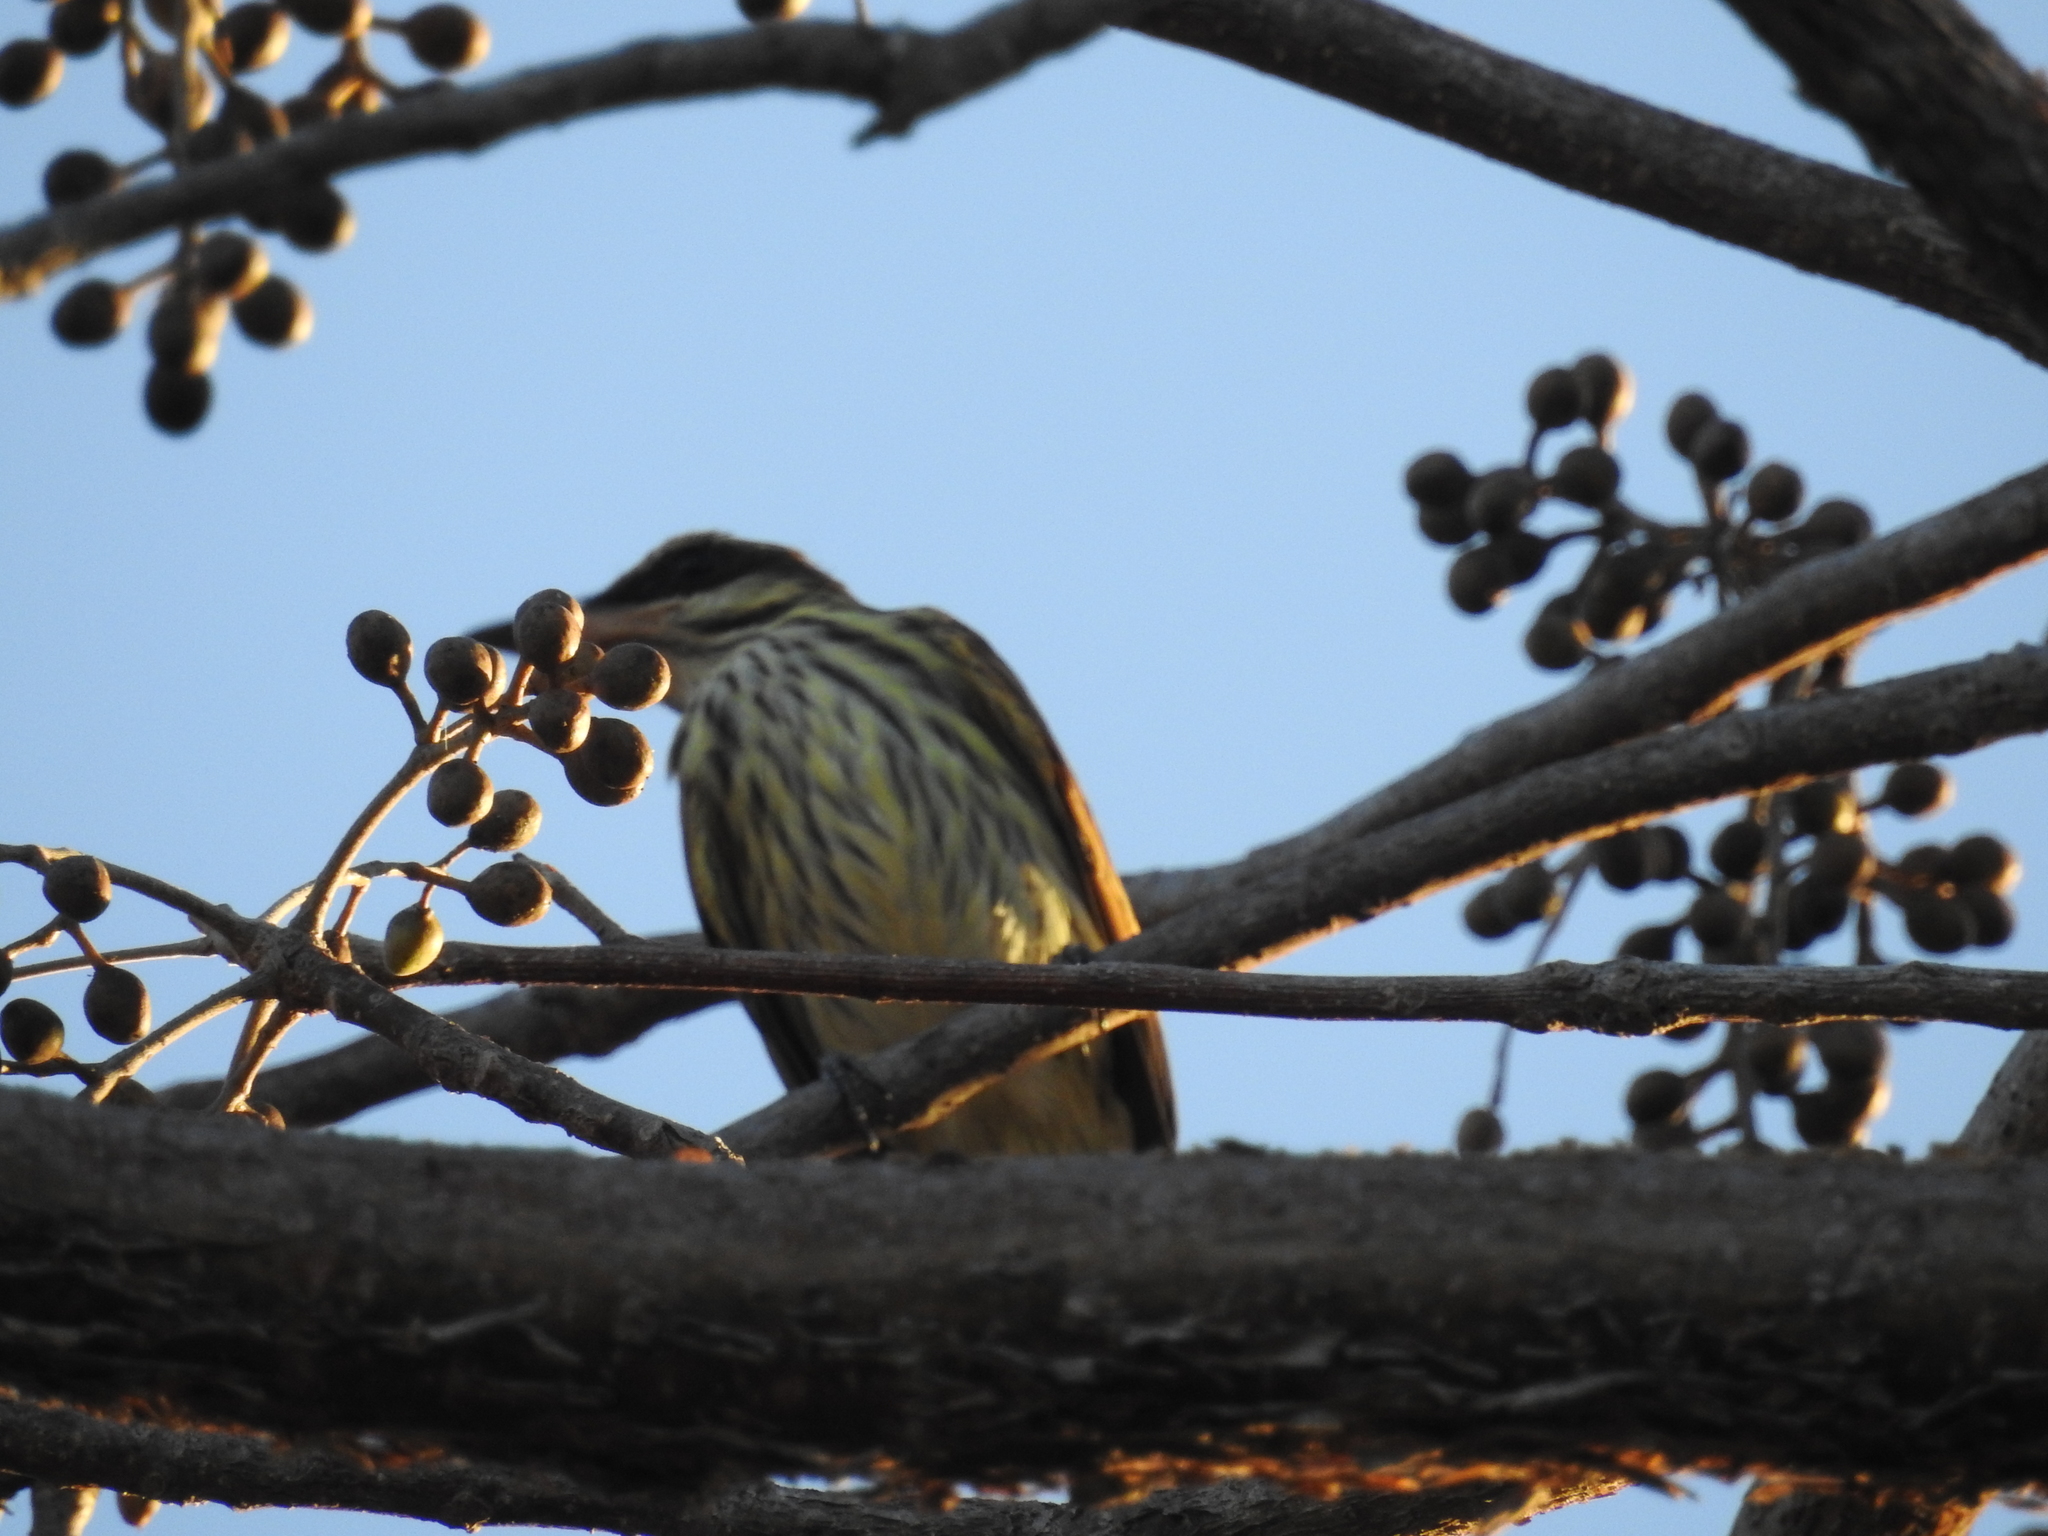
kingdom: Animalia
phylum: Chordata
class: Aves
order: Passeriformes
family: Tyrannidae
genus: Myiodynastes
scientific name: Myiodynastes maculatus
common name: Streaked flycatcher
